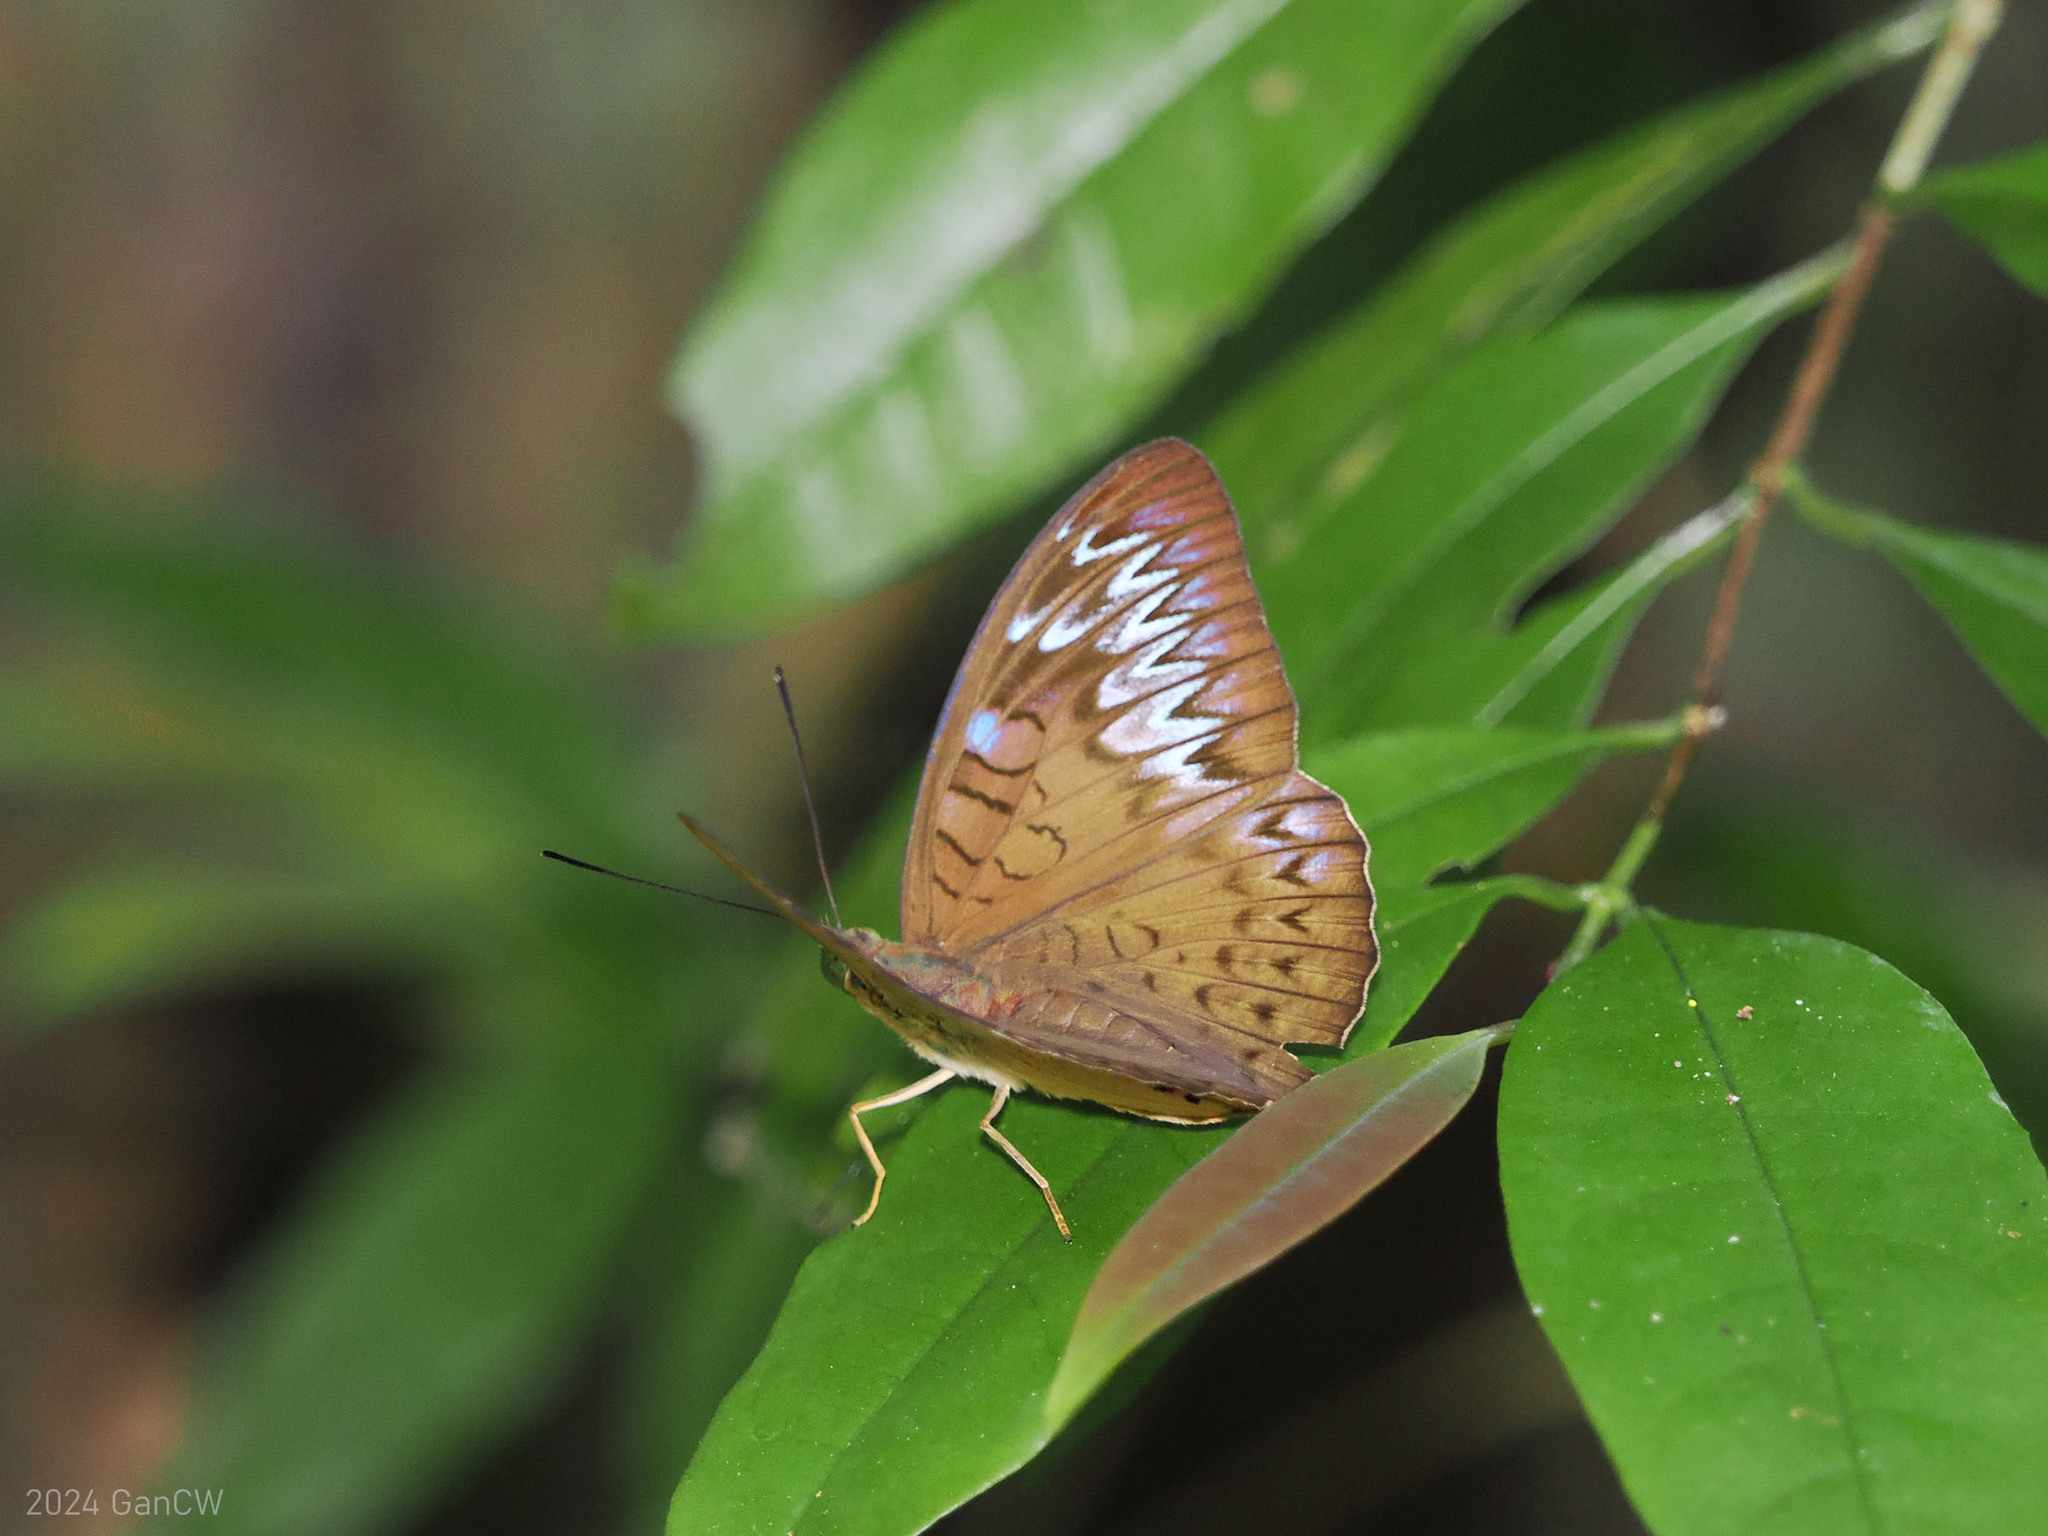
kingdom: Animalia
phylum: Arthropoda
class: Insecta
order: Lepidoptera
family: Nymphalidae
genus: Tanaecia
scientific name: Tanaecia pelea
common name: Malay viscount
